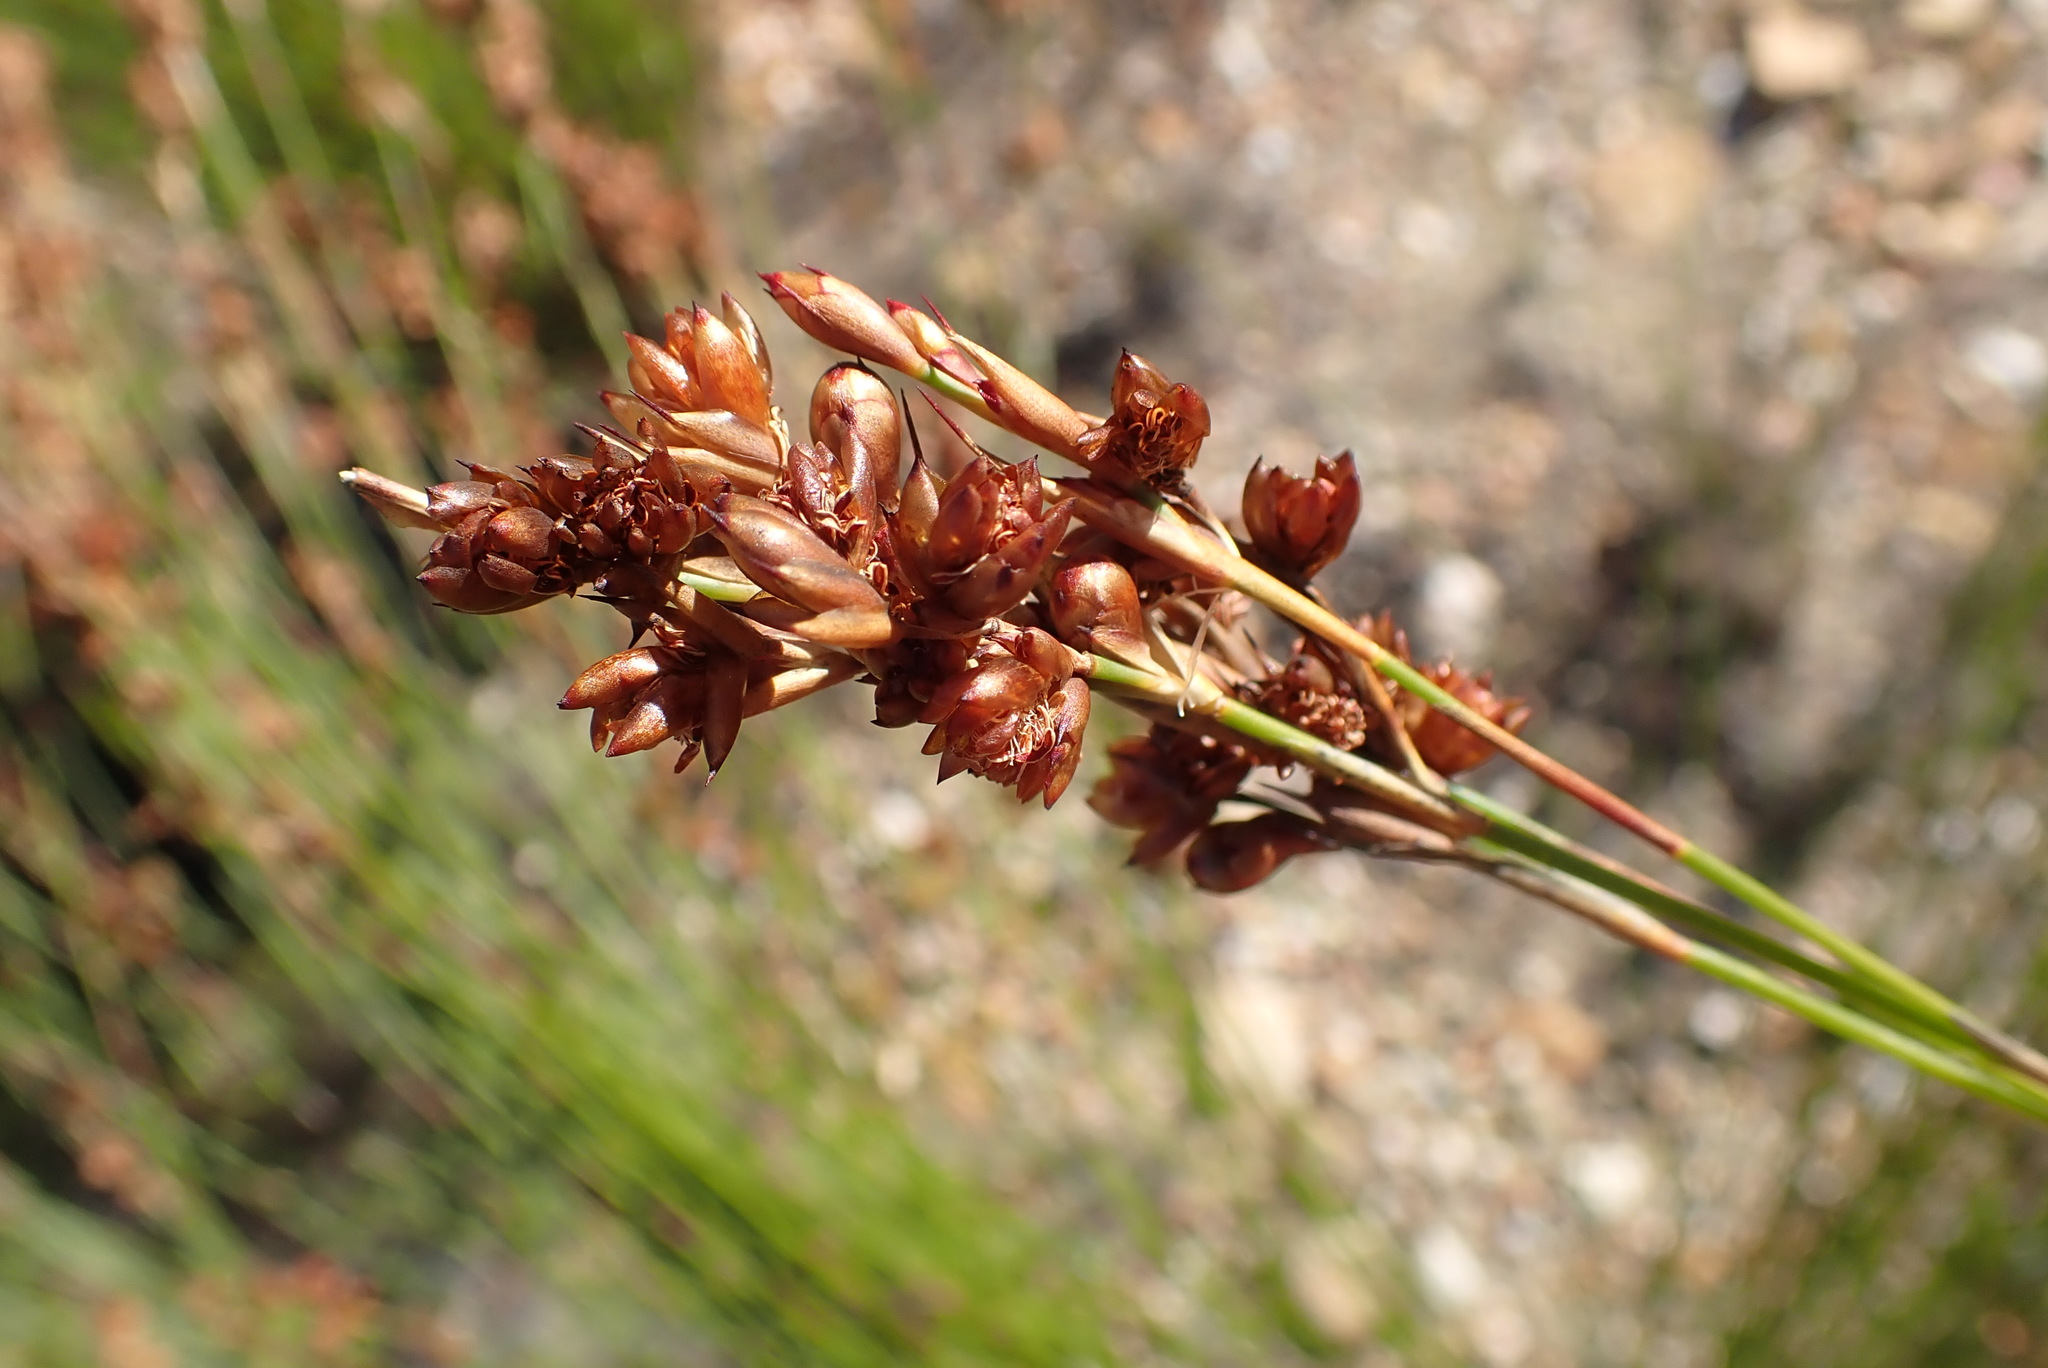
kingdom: Plantae
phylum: Tracheophyta
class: Liliopsida
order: Poales
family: Restionaceae
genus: Mastersiella
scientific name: Mastersiella purpurea
